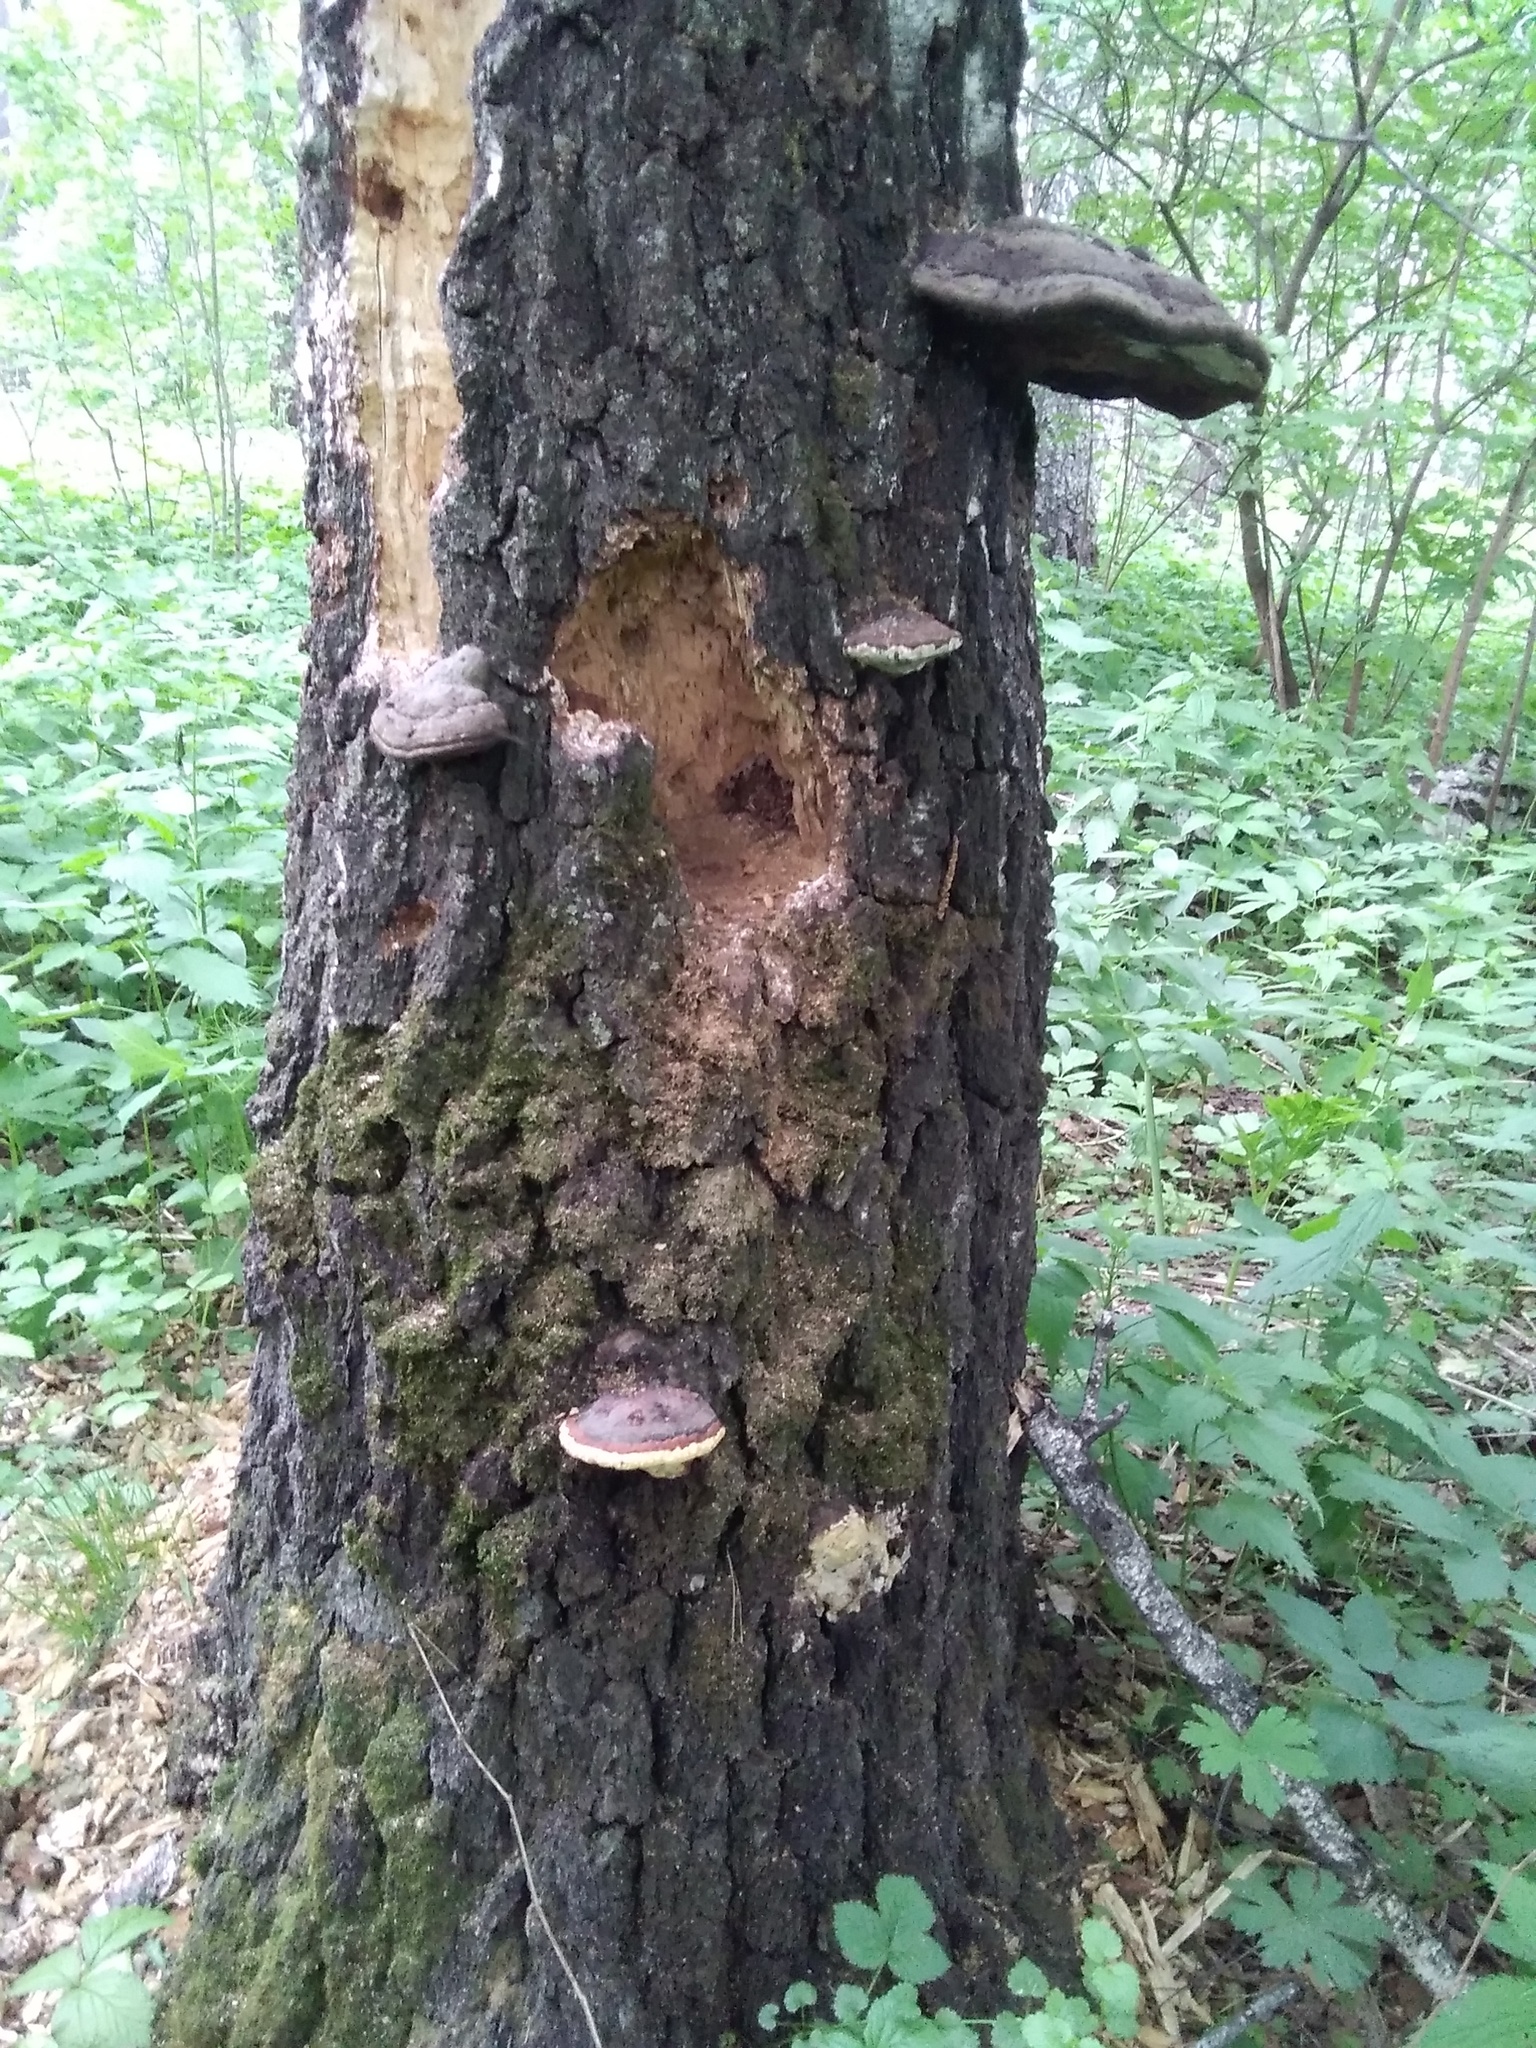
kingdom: Fungi
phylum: Basidiomycota
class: Agaricomycetes
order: Polyporales
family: Fomitopsidaceae
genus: Fomitopsis
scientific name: Fomitopsis pinicola
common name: Red-belted bracket
